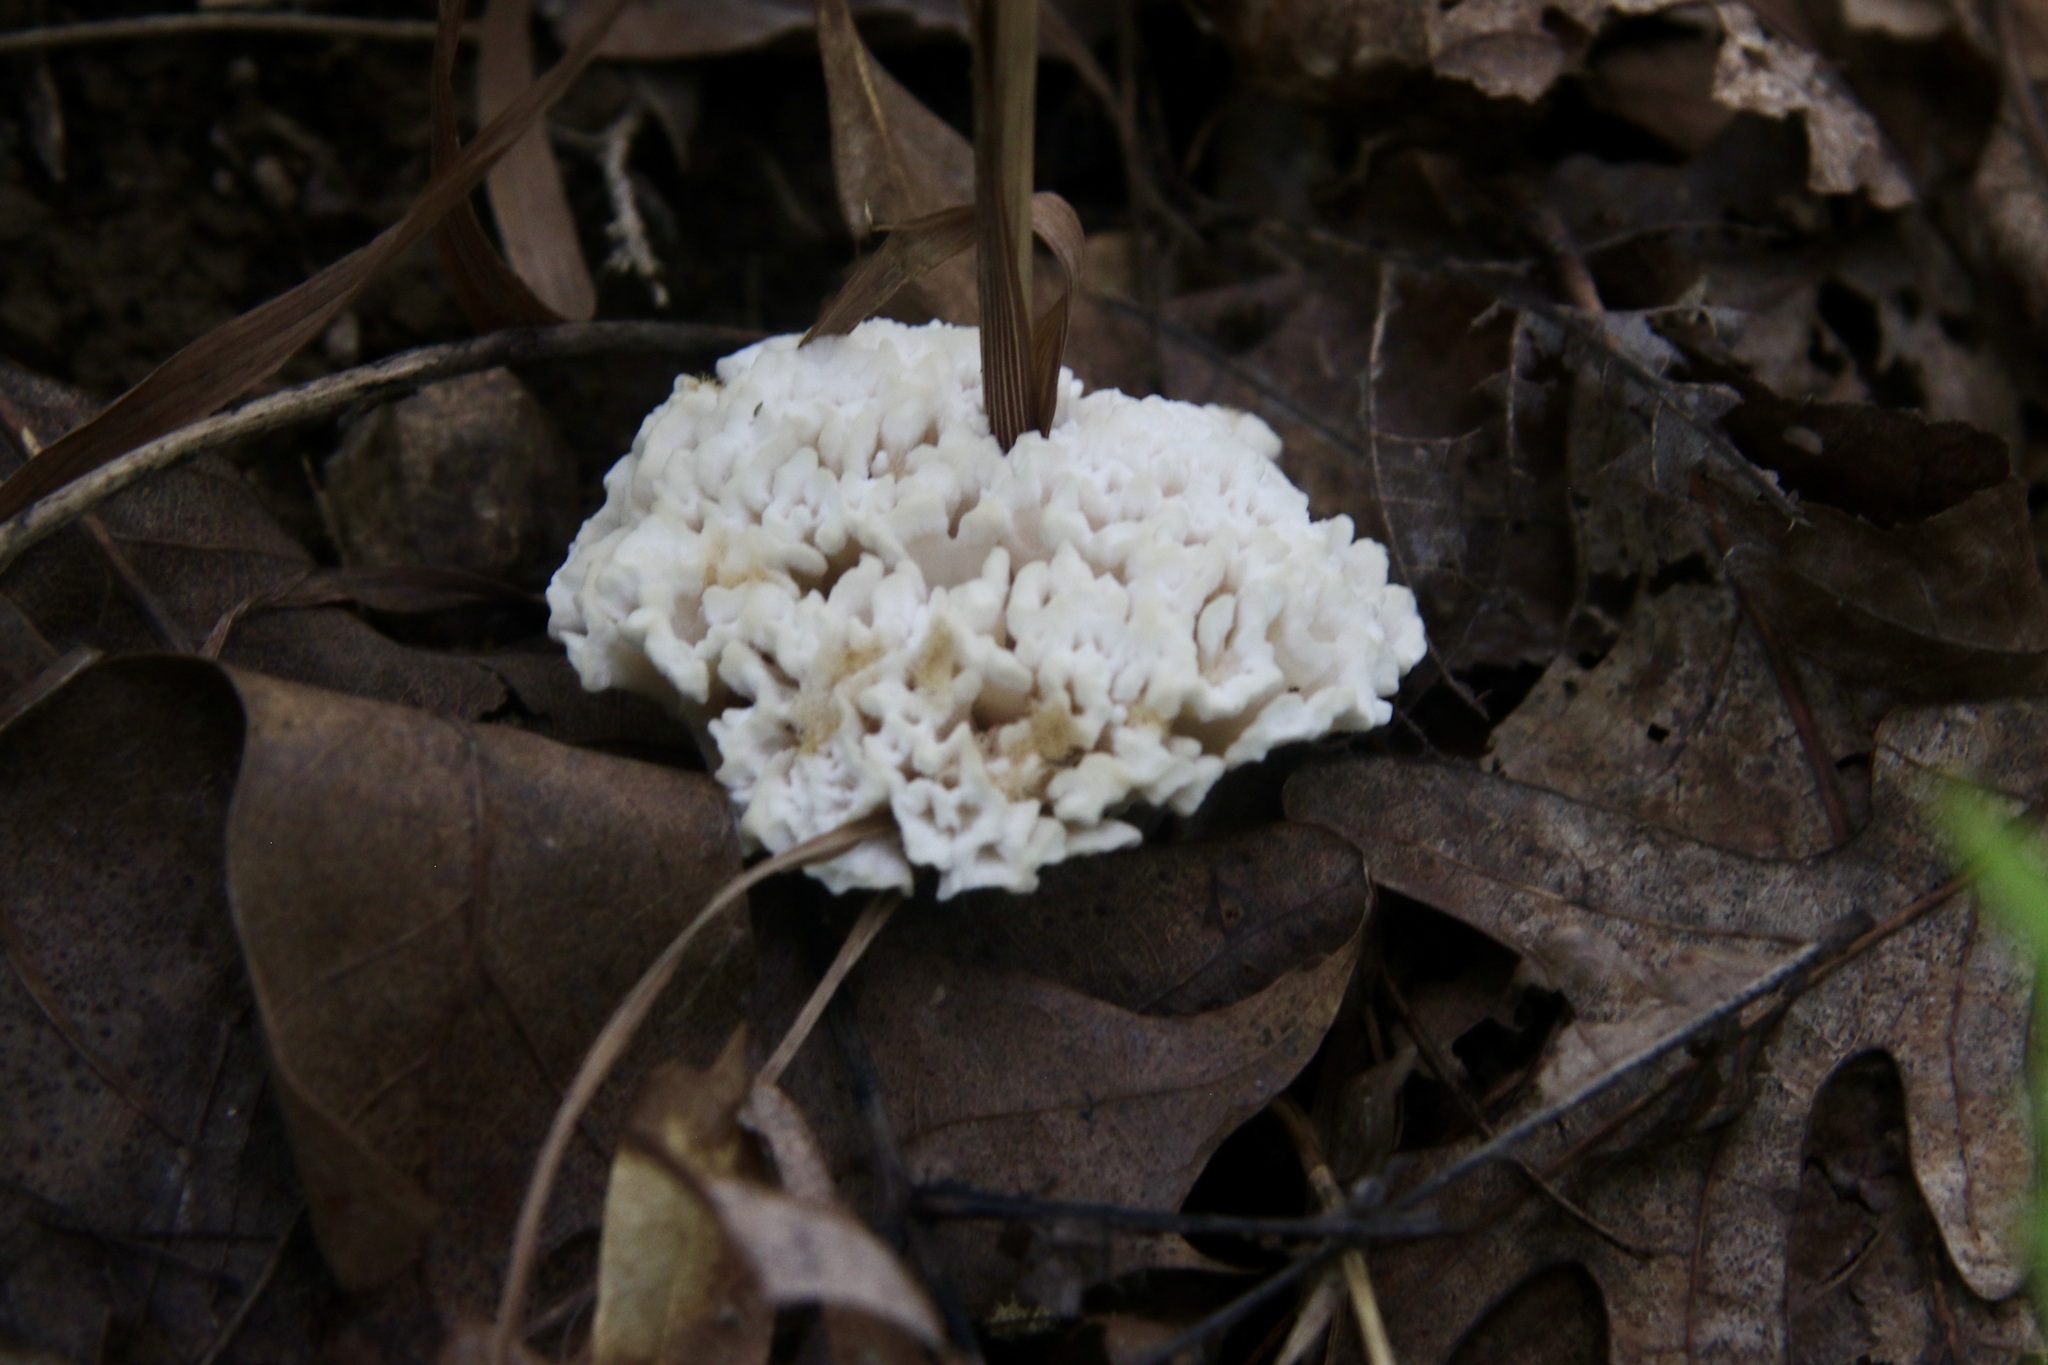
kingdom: Fungi
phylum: Basidiomycota
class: Agaricomycetes
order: Sebacinales
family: Sebacinaceae
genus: Sebacina
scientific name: Sebacina schweinitzii
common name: Jellied false coral fungus
